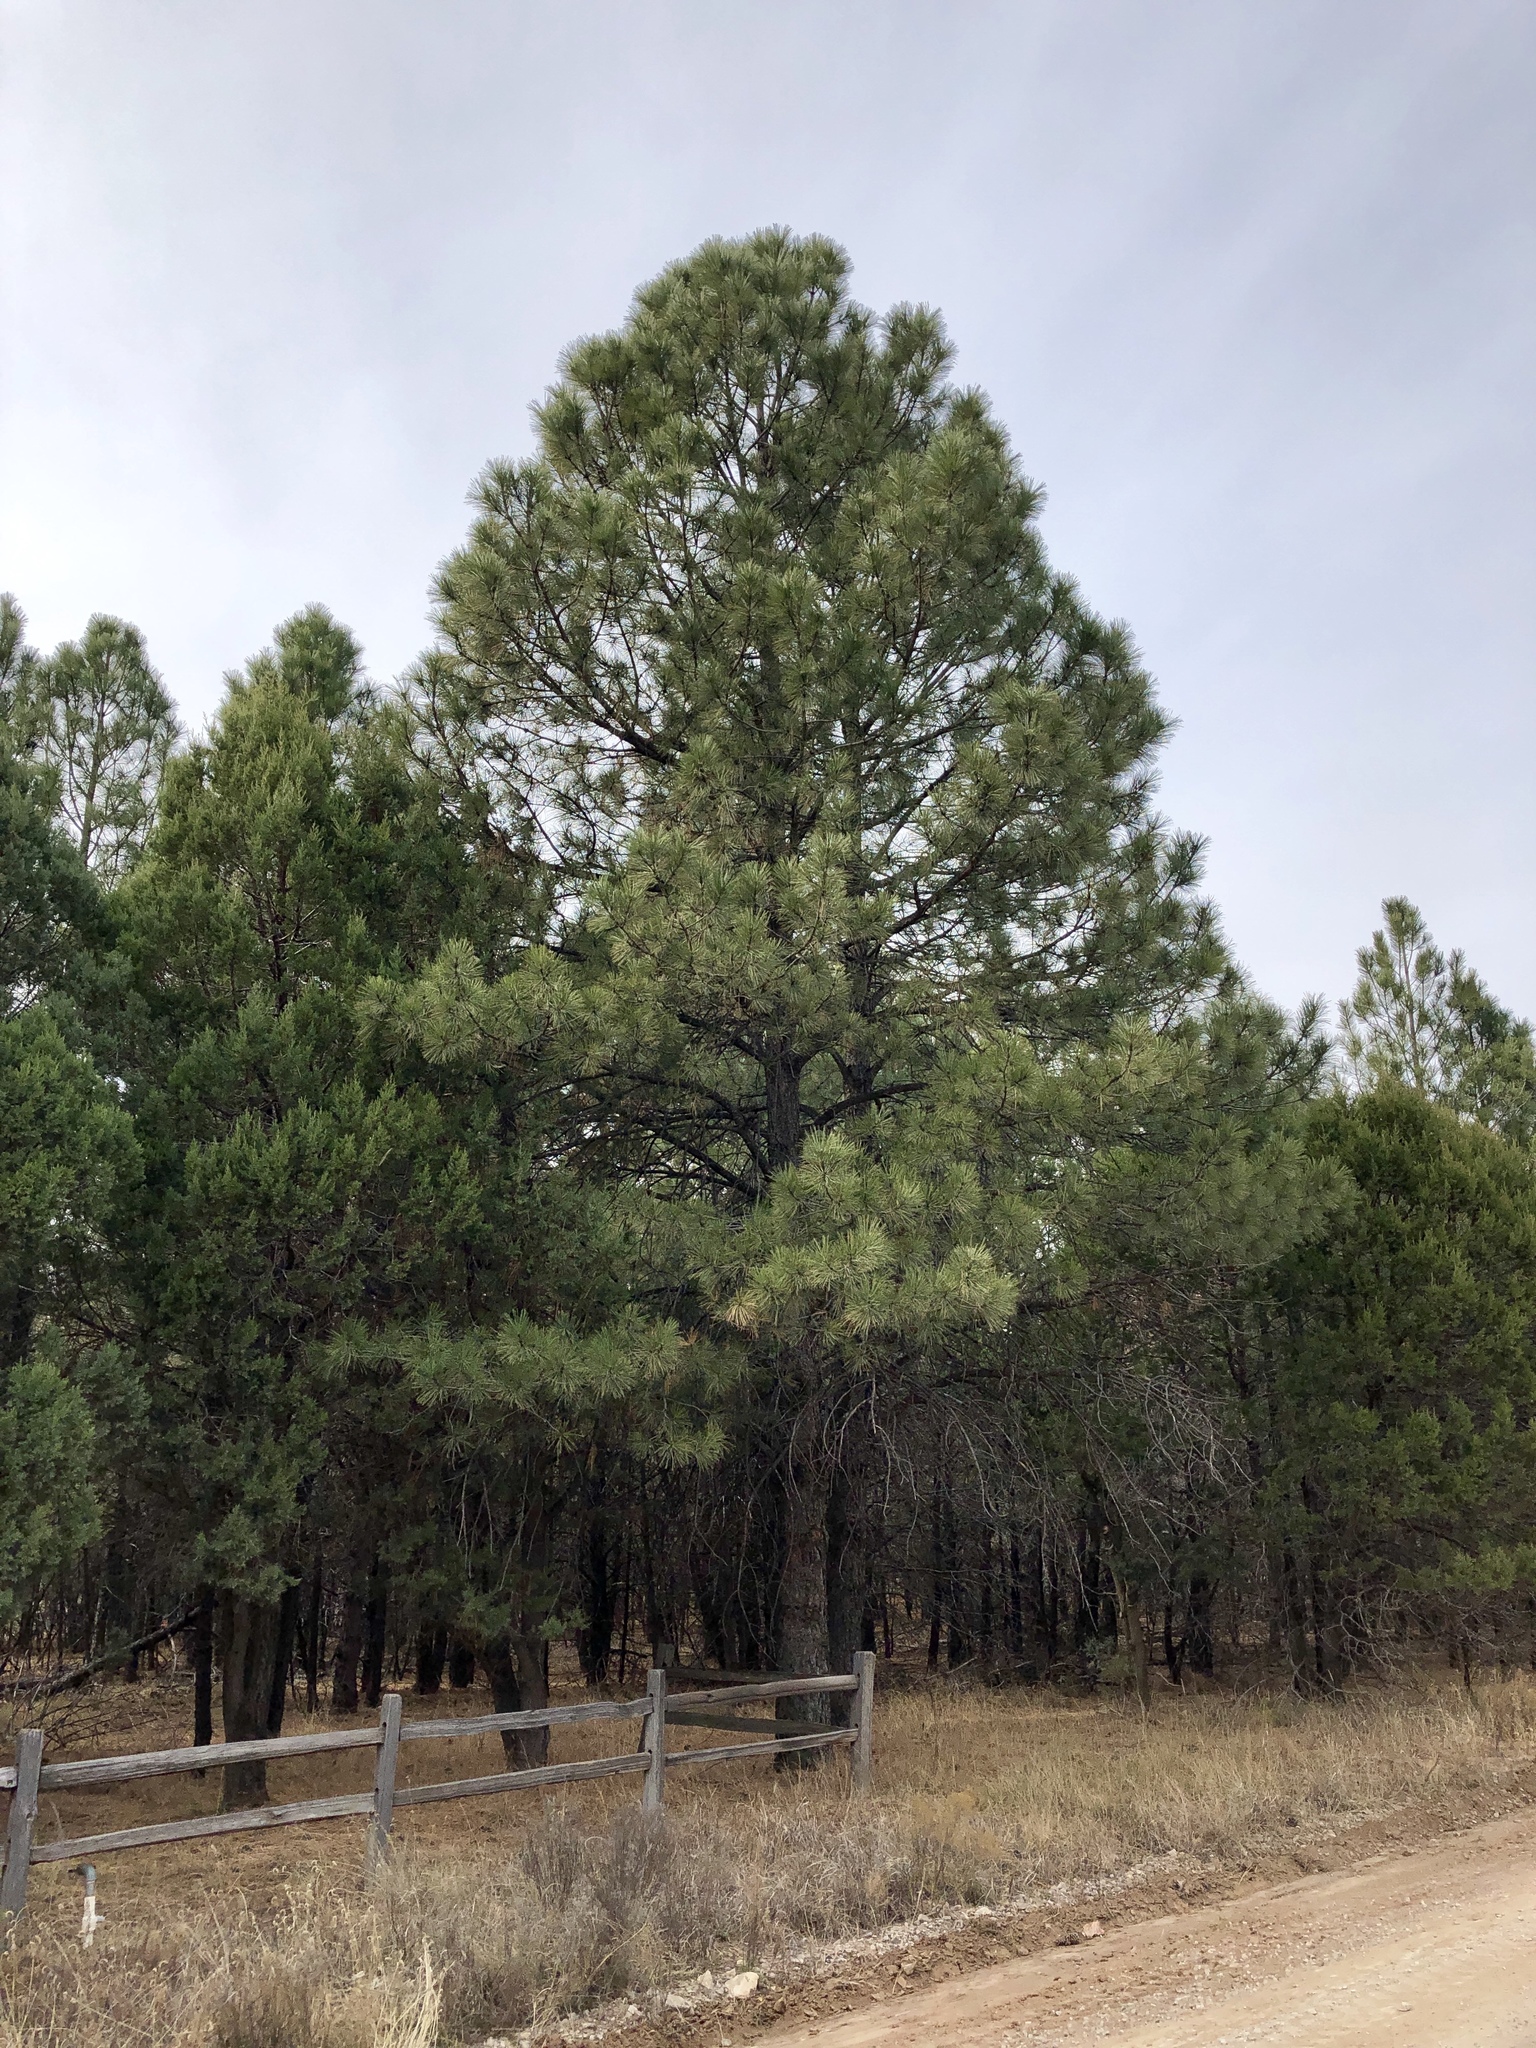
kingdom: Plantae
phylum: Tracheophyta
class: Pinopsida
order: Pinales
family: Pinaceae
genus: Pinus
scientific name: Pinus ponderosa
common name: Western yellow-pine
